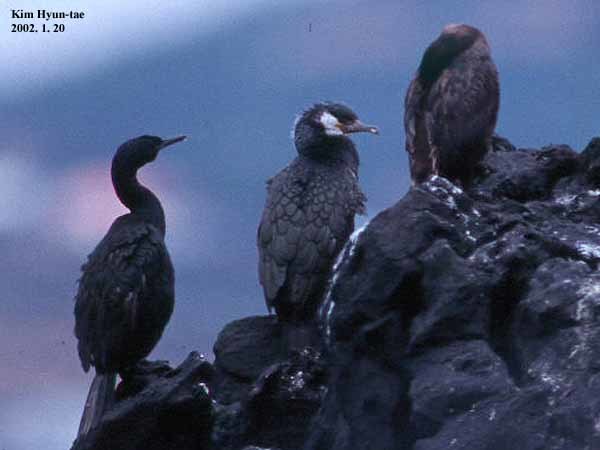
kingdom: Animalia
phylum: Chordata
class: Aves
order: Suliformes
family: Phalacrocoracidae
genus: Phalacrocorax
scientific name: Phalacrocorax pelagicus
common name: Pelagic cormorant
